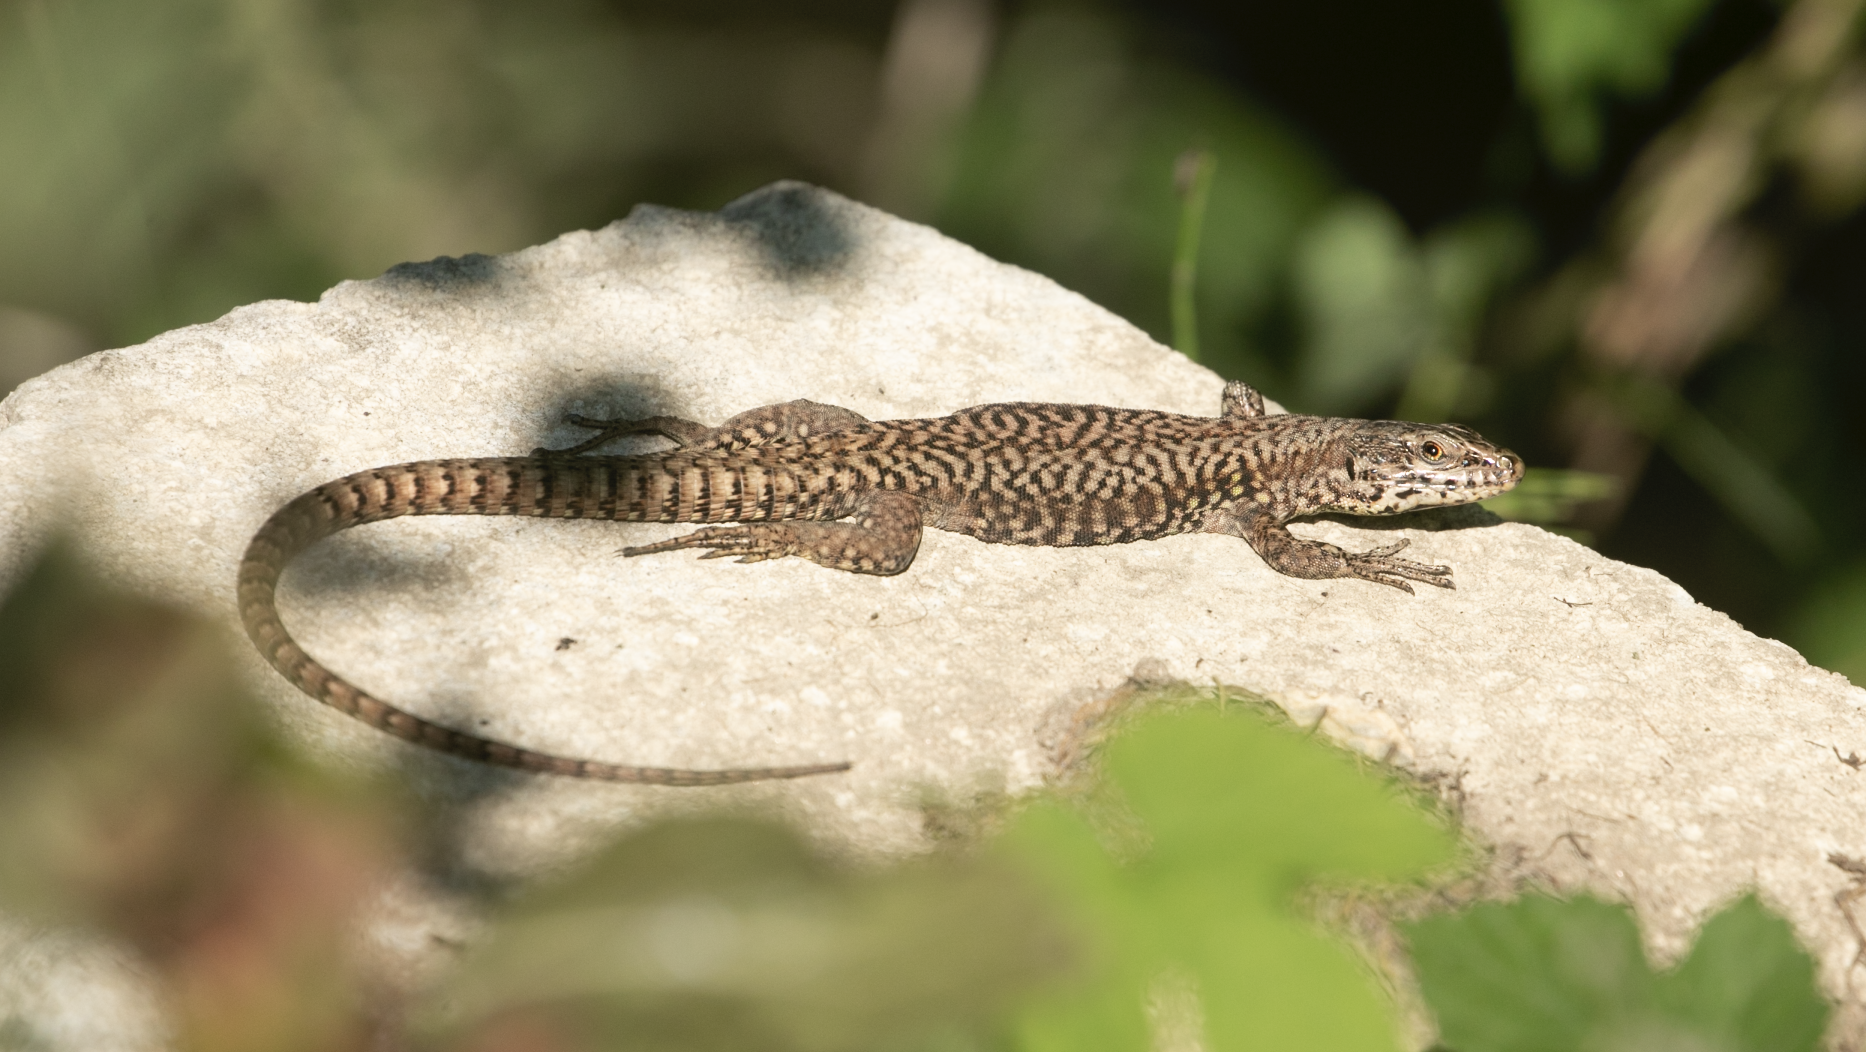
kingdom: Animalia
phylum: Chordata
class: Squamata
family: Lacertidae
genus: Podarcis
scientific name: Podarcis muralis
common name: Common wall lizard
